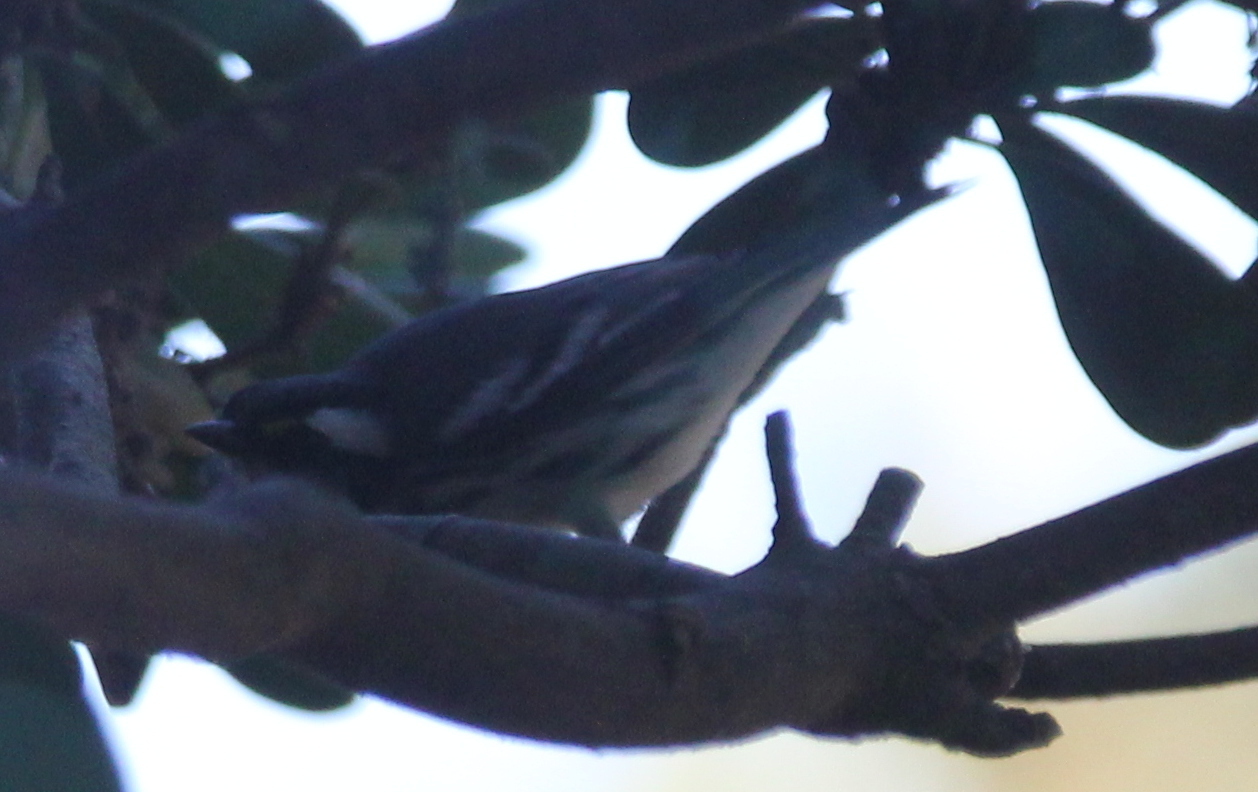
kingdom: Animalia
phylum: Chordata
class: Aves
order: Passeriformes
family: Parulidae
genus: Setophaga
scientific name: Setophaga nigrescens
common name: Black-throated gray warbler
